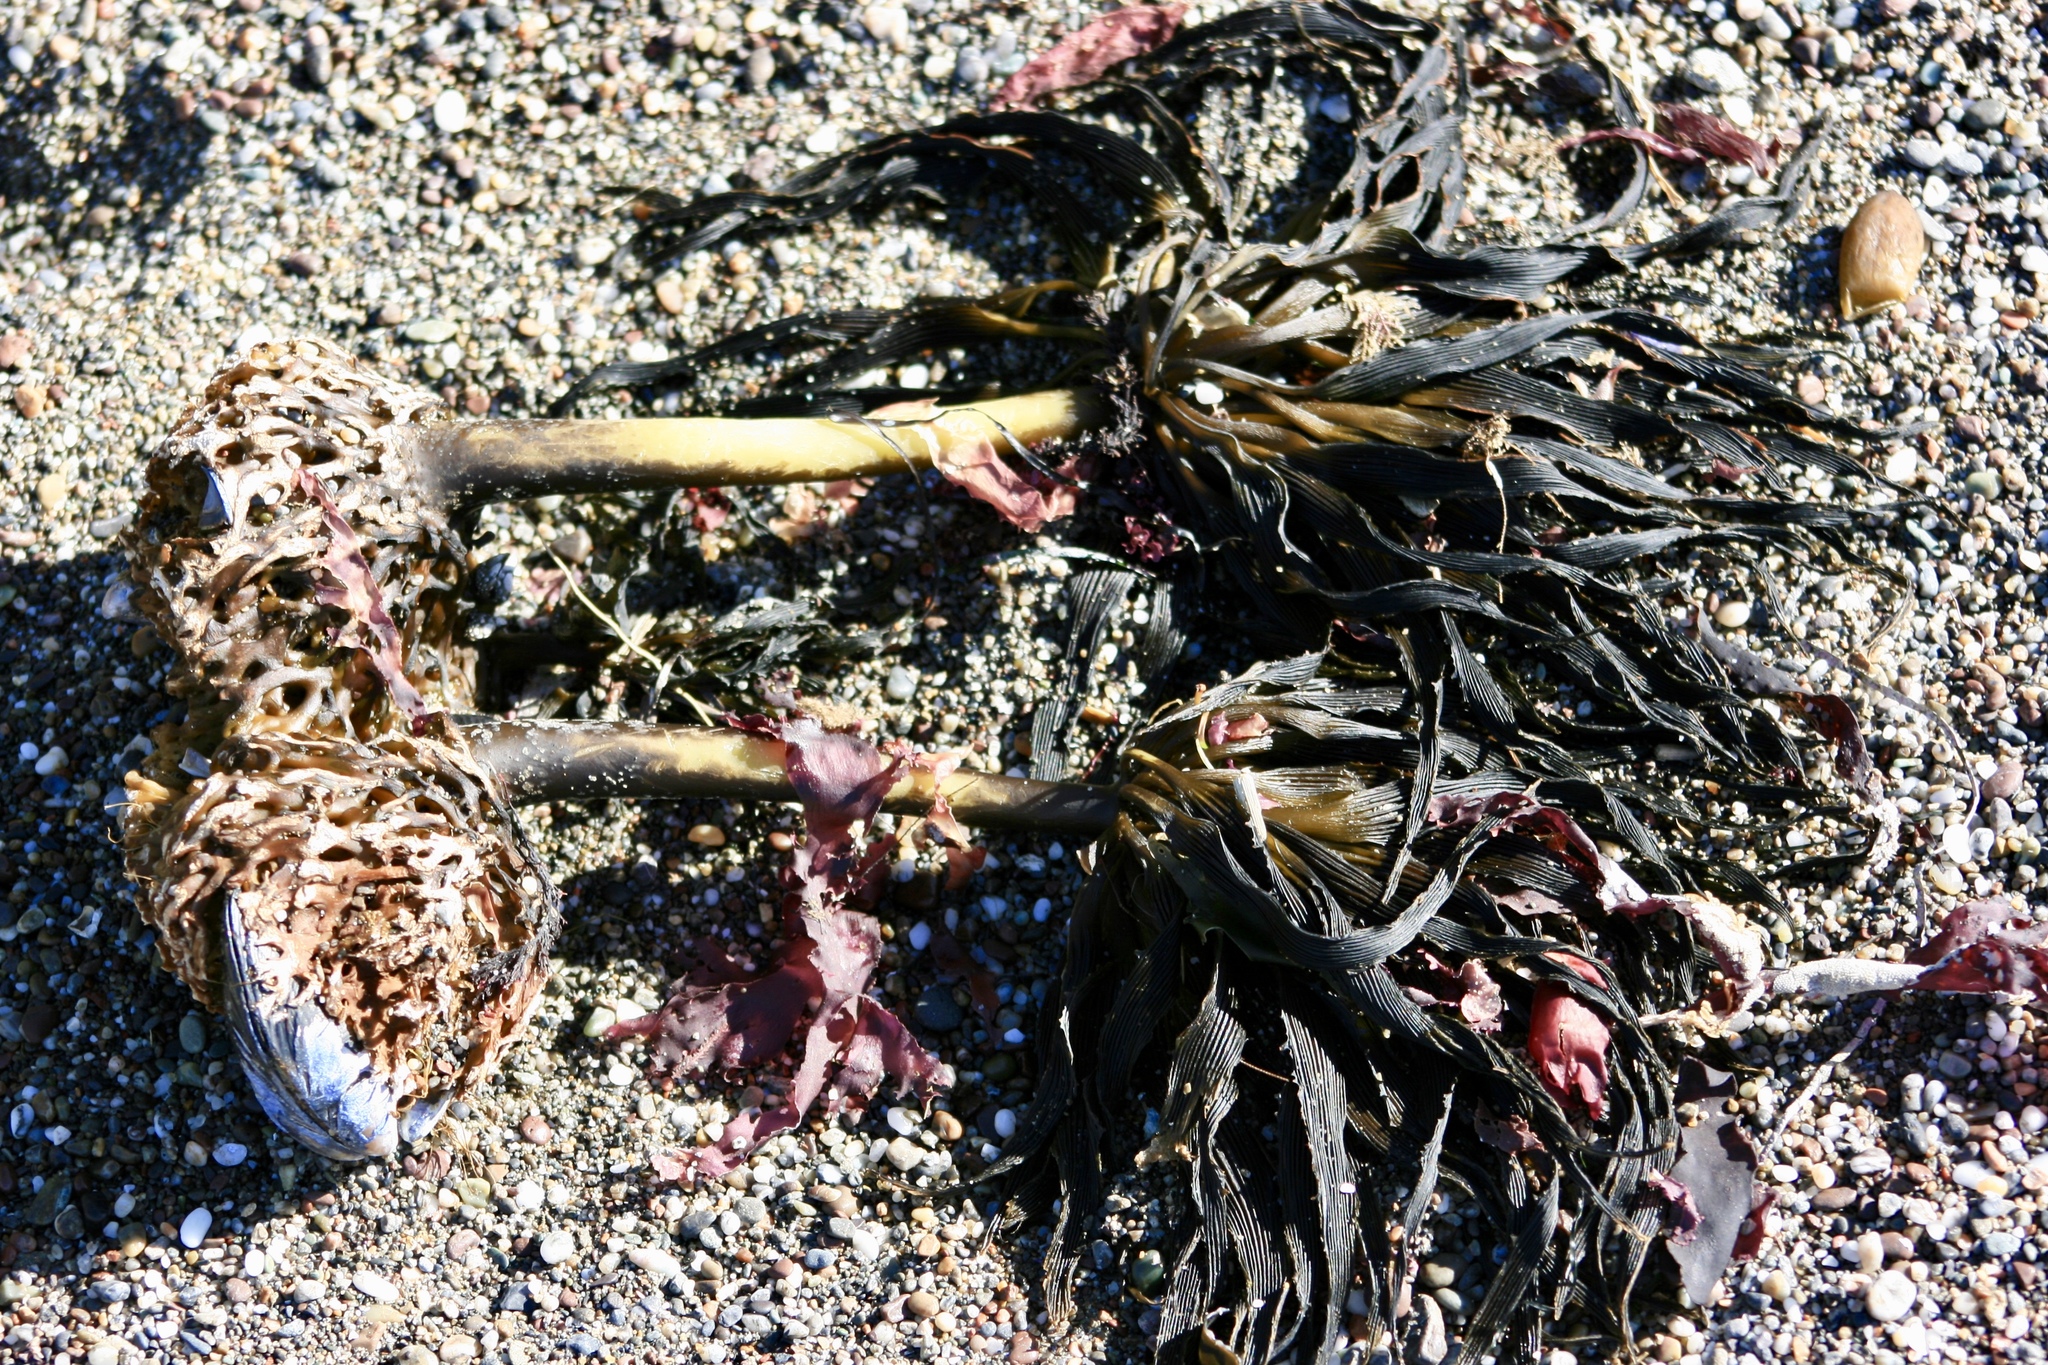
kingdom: Chromista
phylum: Ochrophyta
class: Phaeophyceae
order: Laminariales
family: Laminariaceae
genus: Postelsia
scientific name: Postelsia palmiformis
